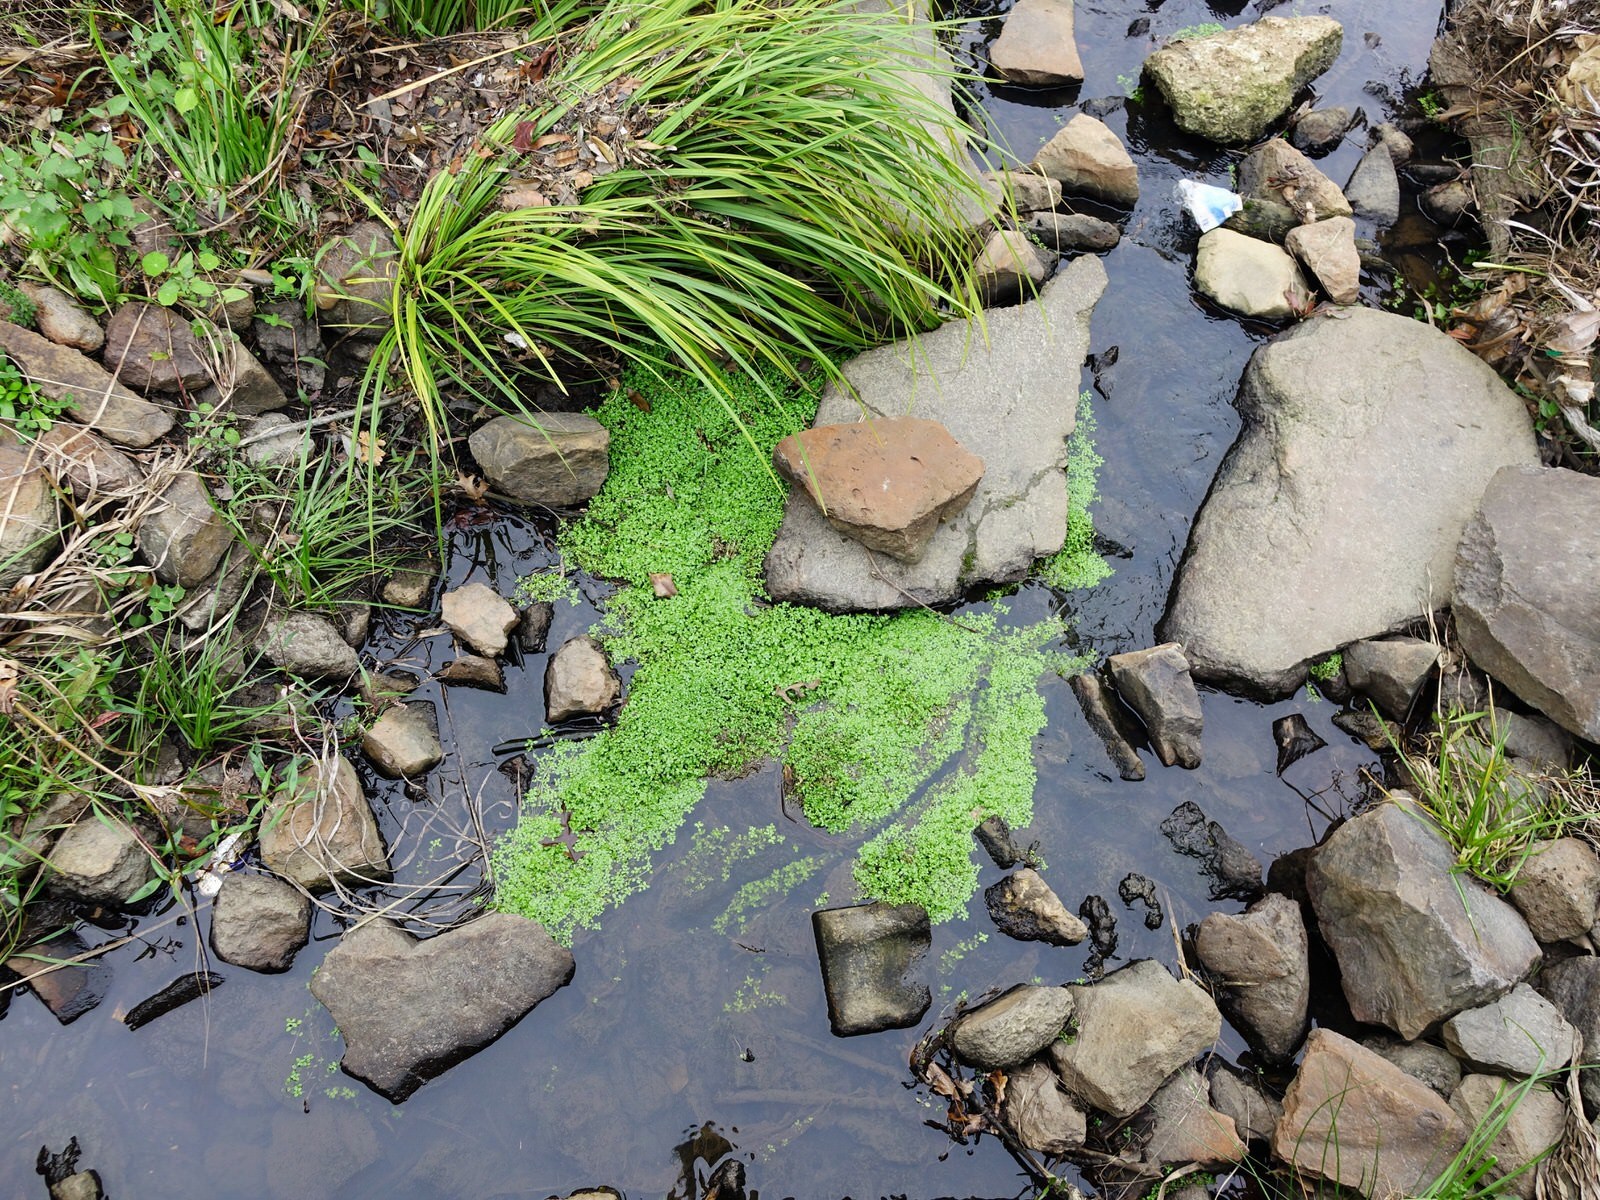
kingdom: Plantae
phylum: Tracheophyta
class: Magnoliopsida
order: Lamiales
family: Plantaginaceae
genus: Callitriche
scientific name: Callitriche stagnalis
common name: Common water-starwort
